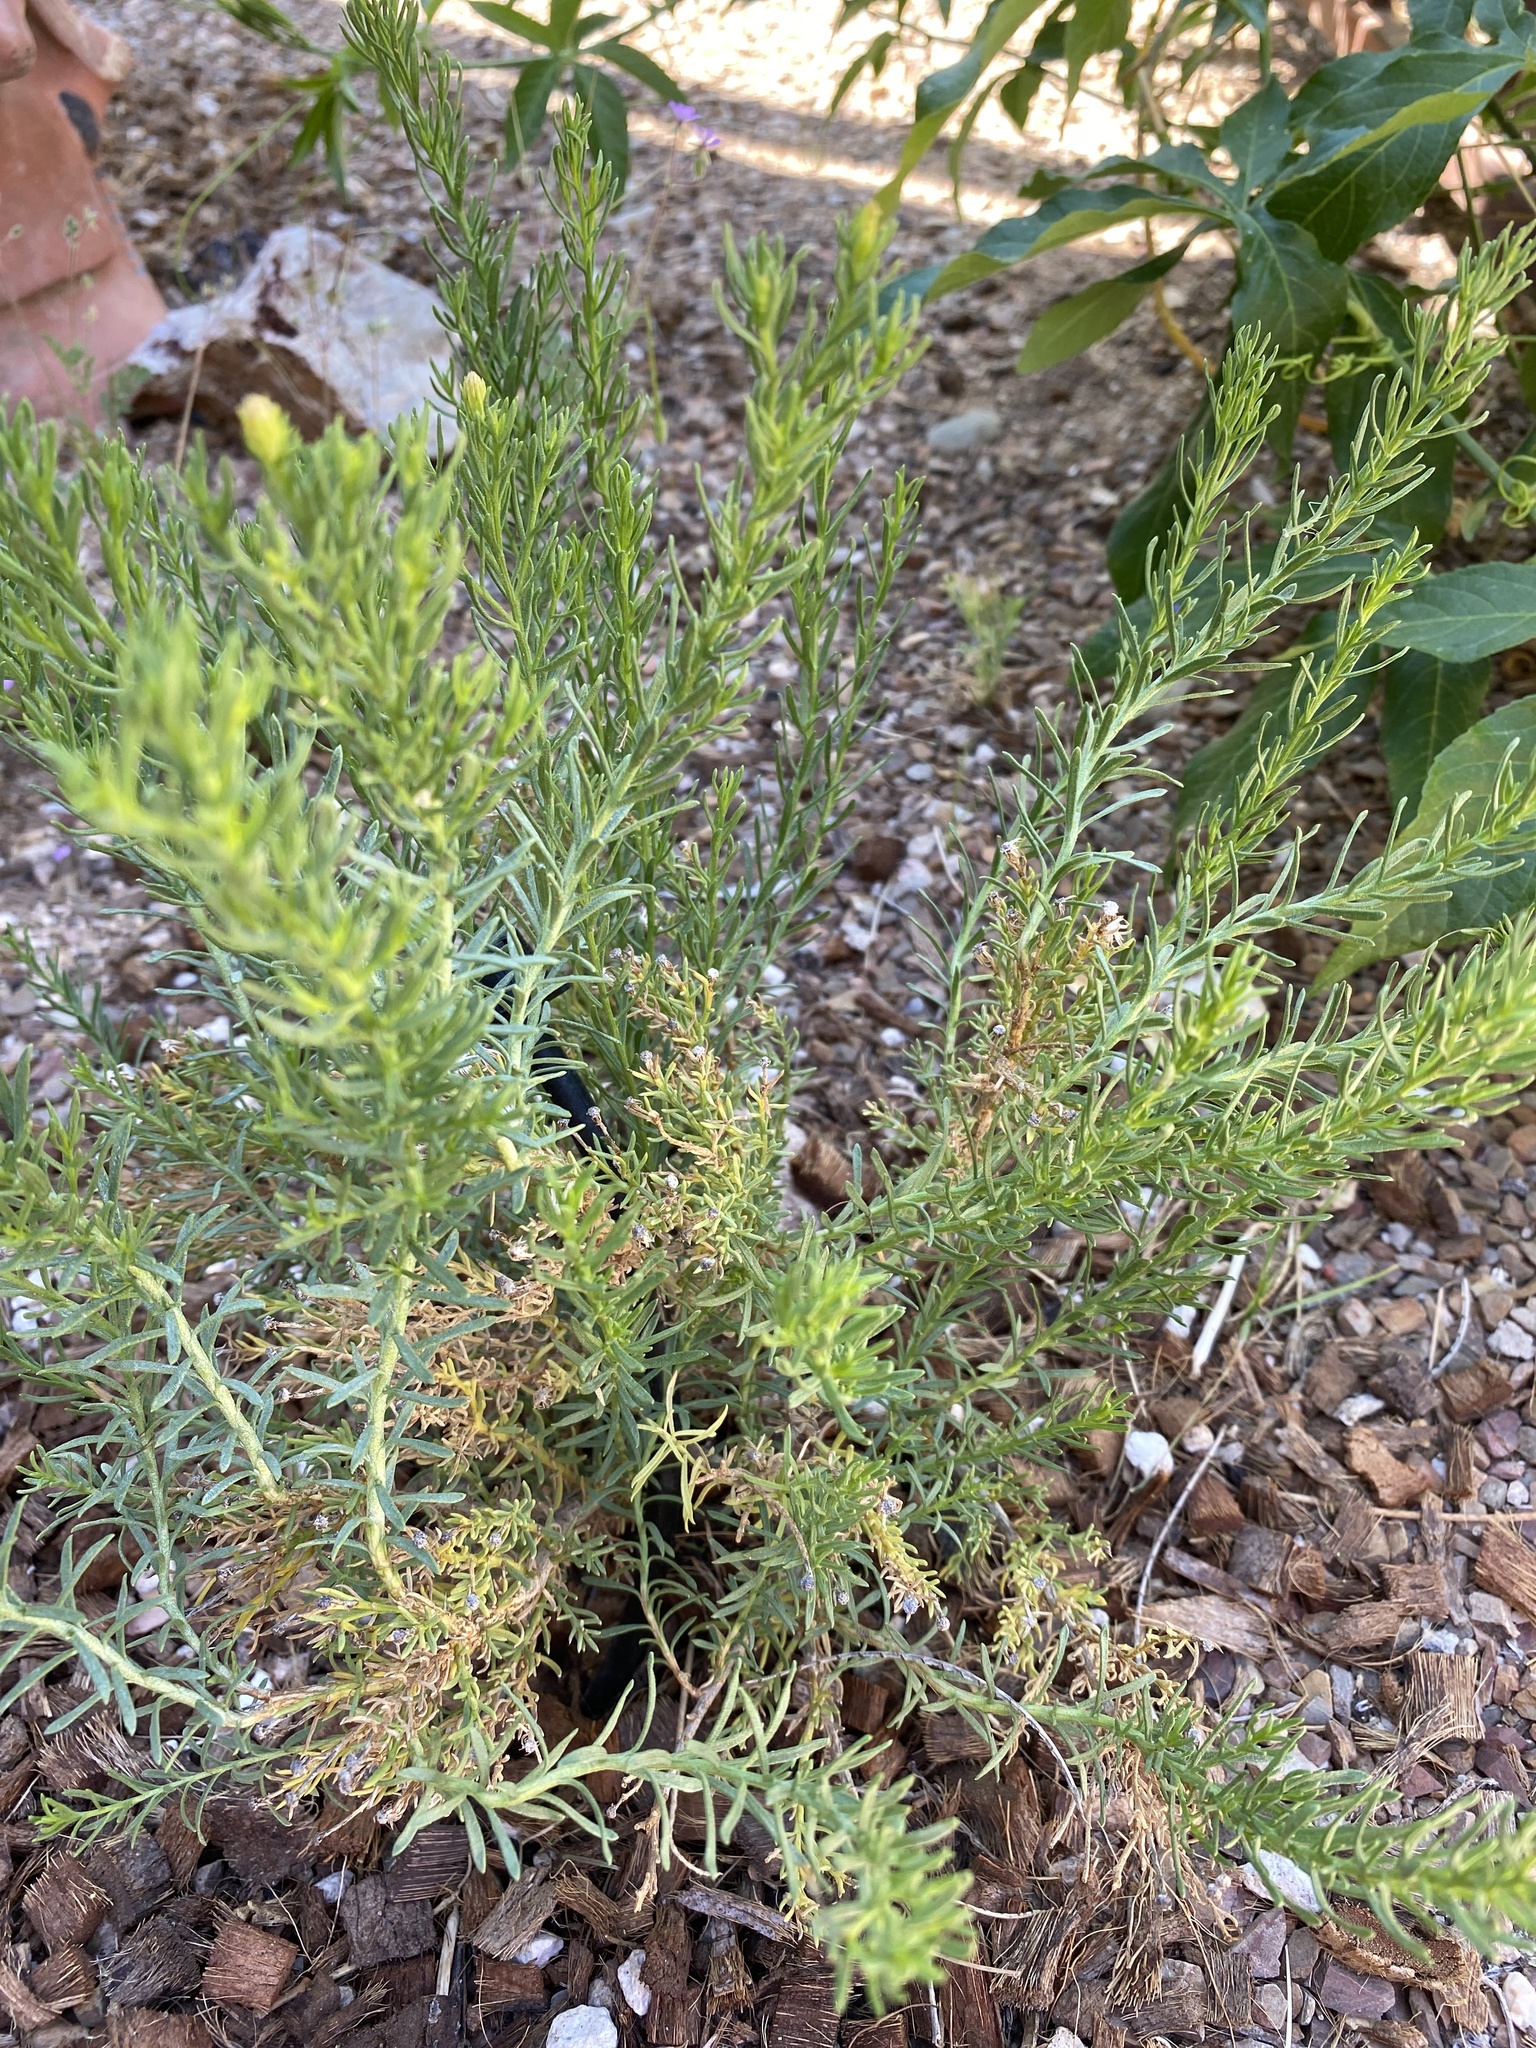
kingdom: Plantae
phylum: Tracheophyta
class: Magnoliopsida
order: Asterales
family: Asteraceae
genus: Ericameria
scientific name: Ericameria laricifolia
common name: Turpentine-bush
